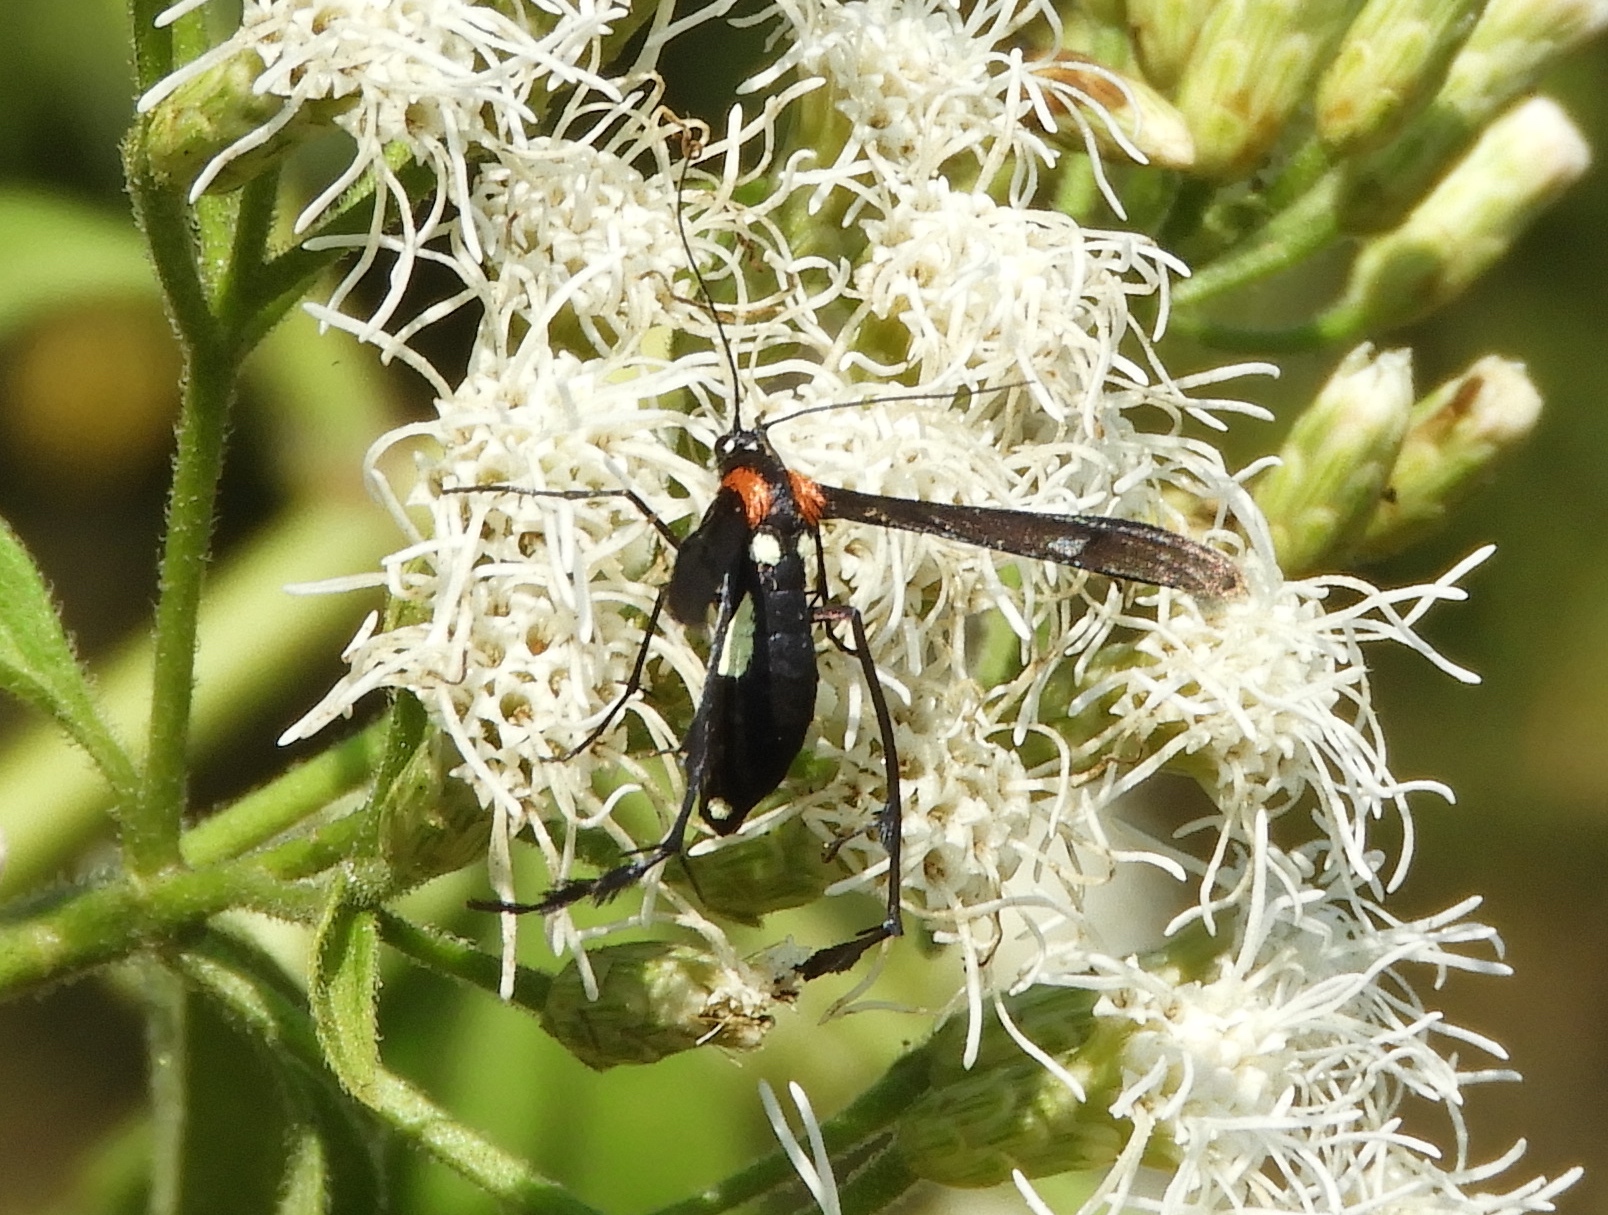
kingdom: Animalia
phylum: Arthropoda
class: Insecta
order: Lepidoptera
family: Pterophoridae
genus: Hellinsia
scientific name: Hellinsia chamelai
